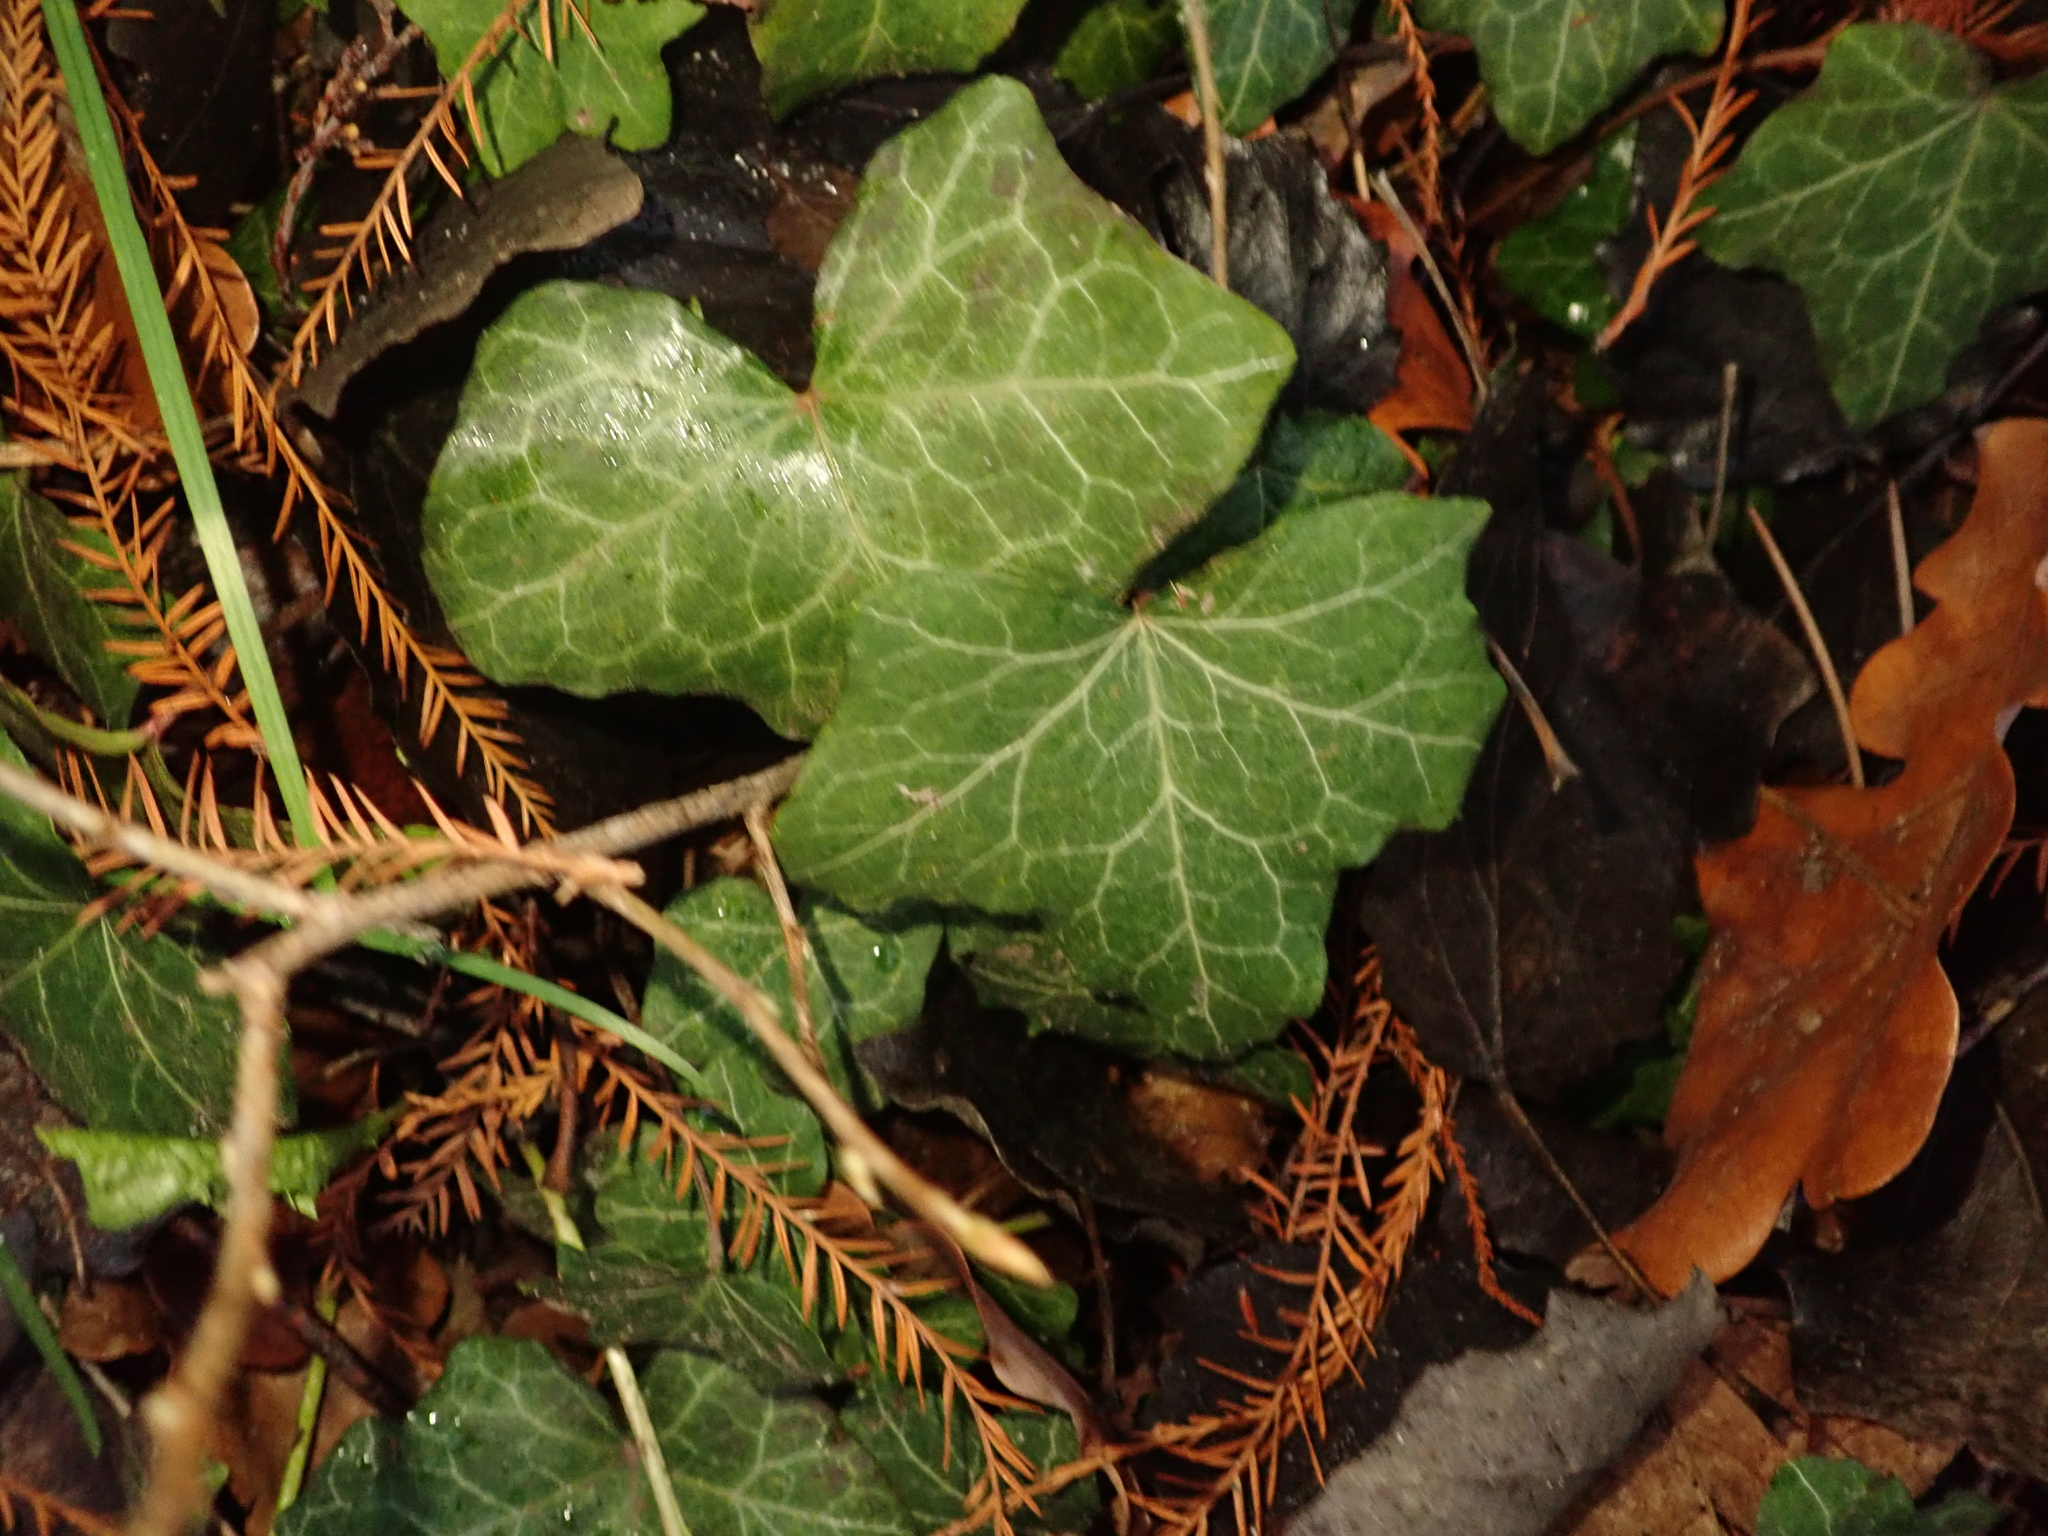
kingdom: Plantae
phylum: Tracheophyta
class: Magnoliopsida
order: Apiales
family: Araliaceae
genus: Hedera
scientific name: Hedera helix
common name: Ivy
